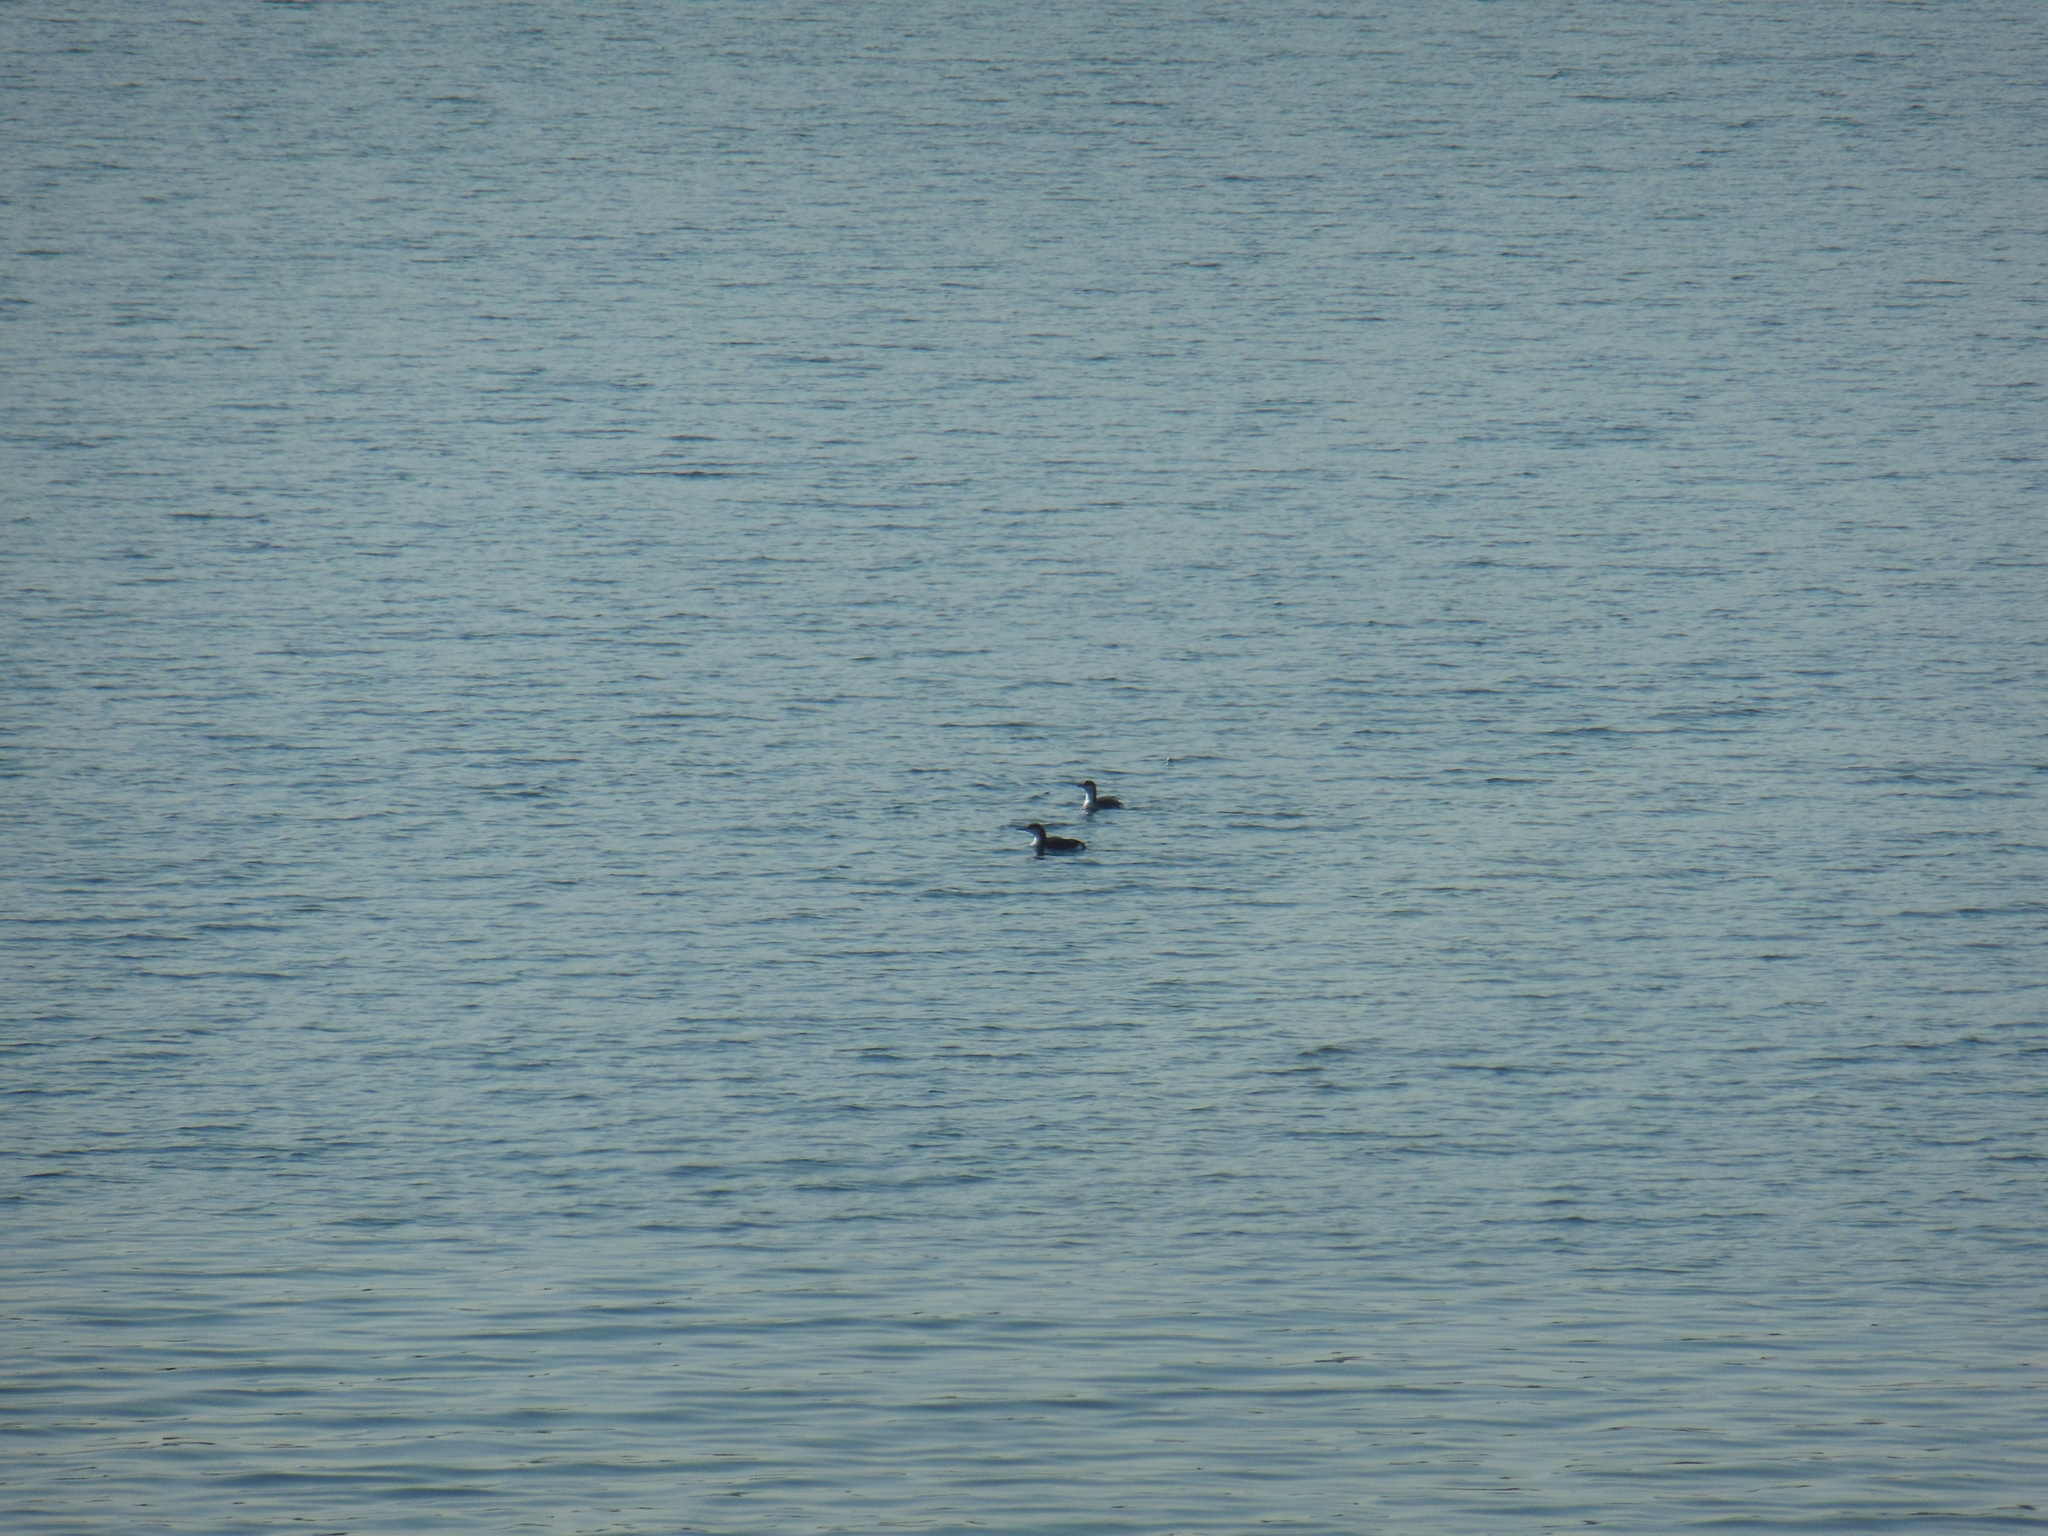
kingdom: Animalia
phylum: Chordata
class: Aves
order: Gaviiformes
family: Gaviidae
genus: Gavia
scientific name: Gavia arctica
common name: Black-throated loon
